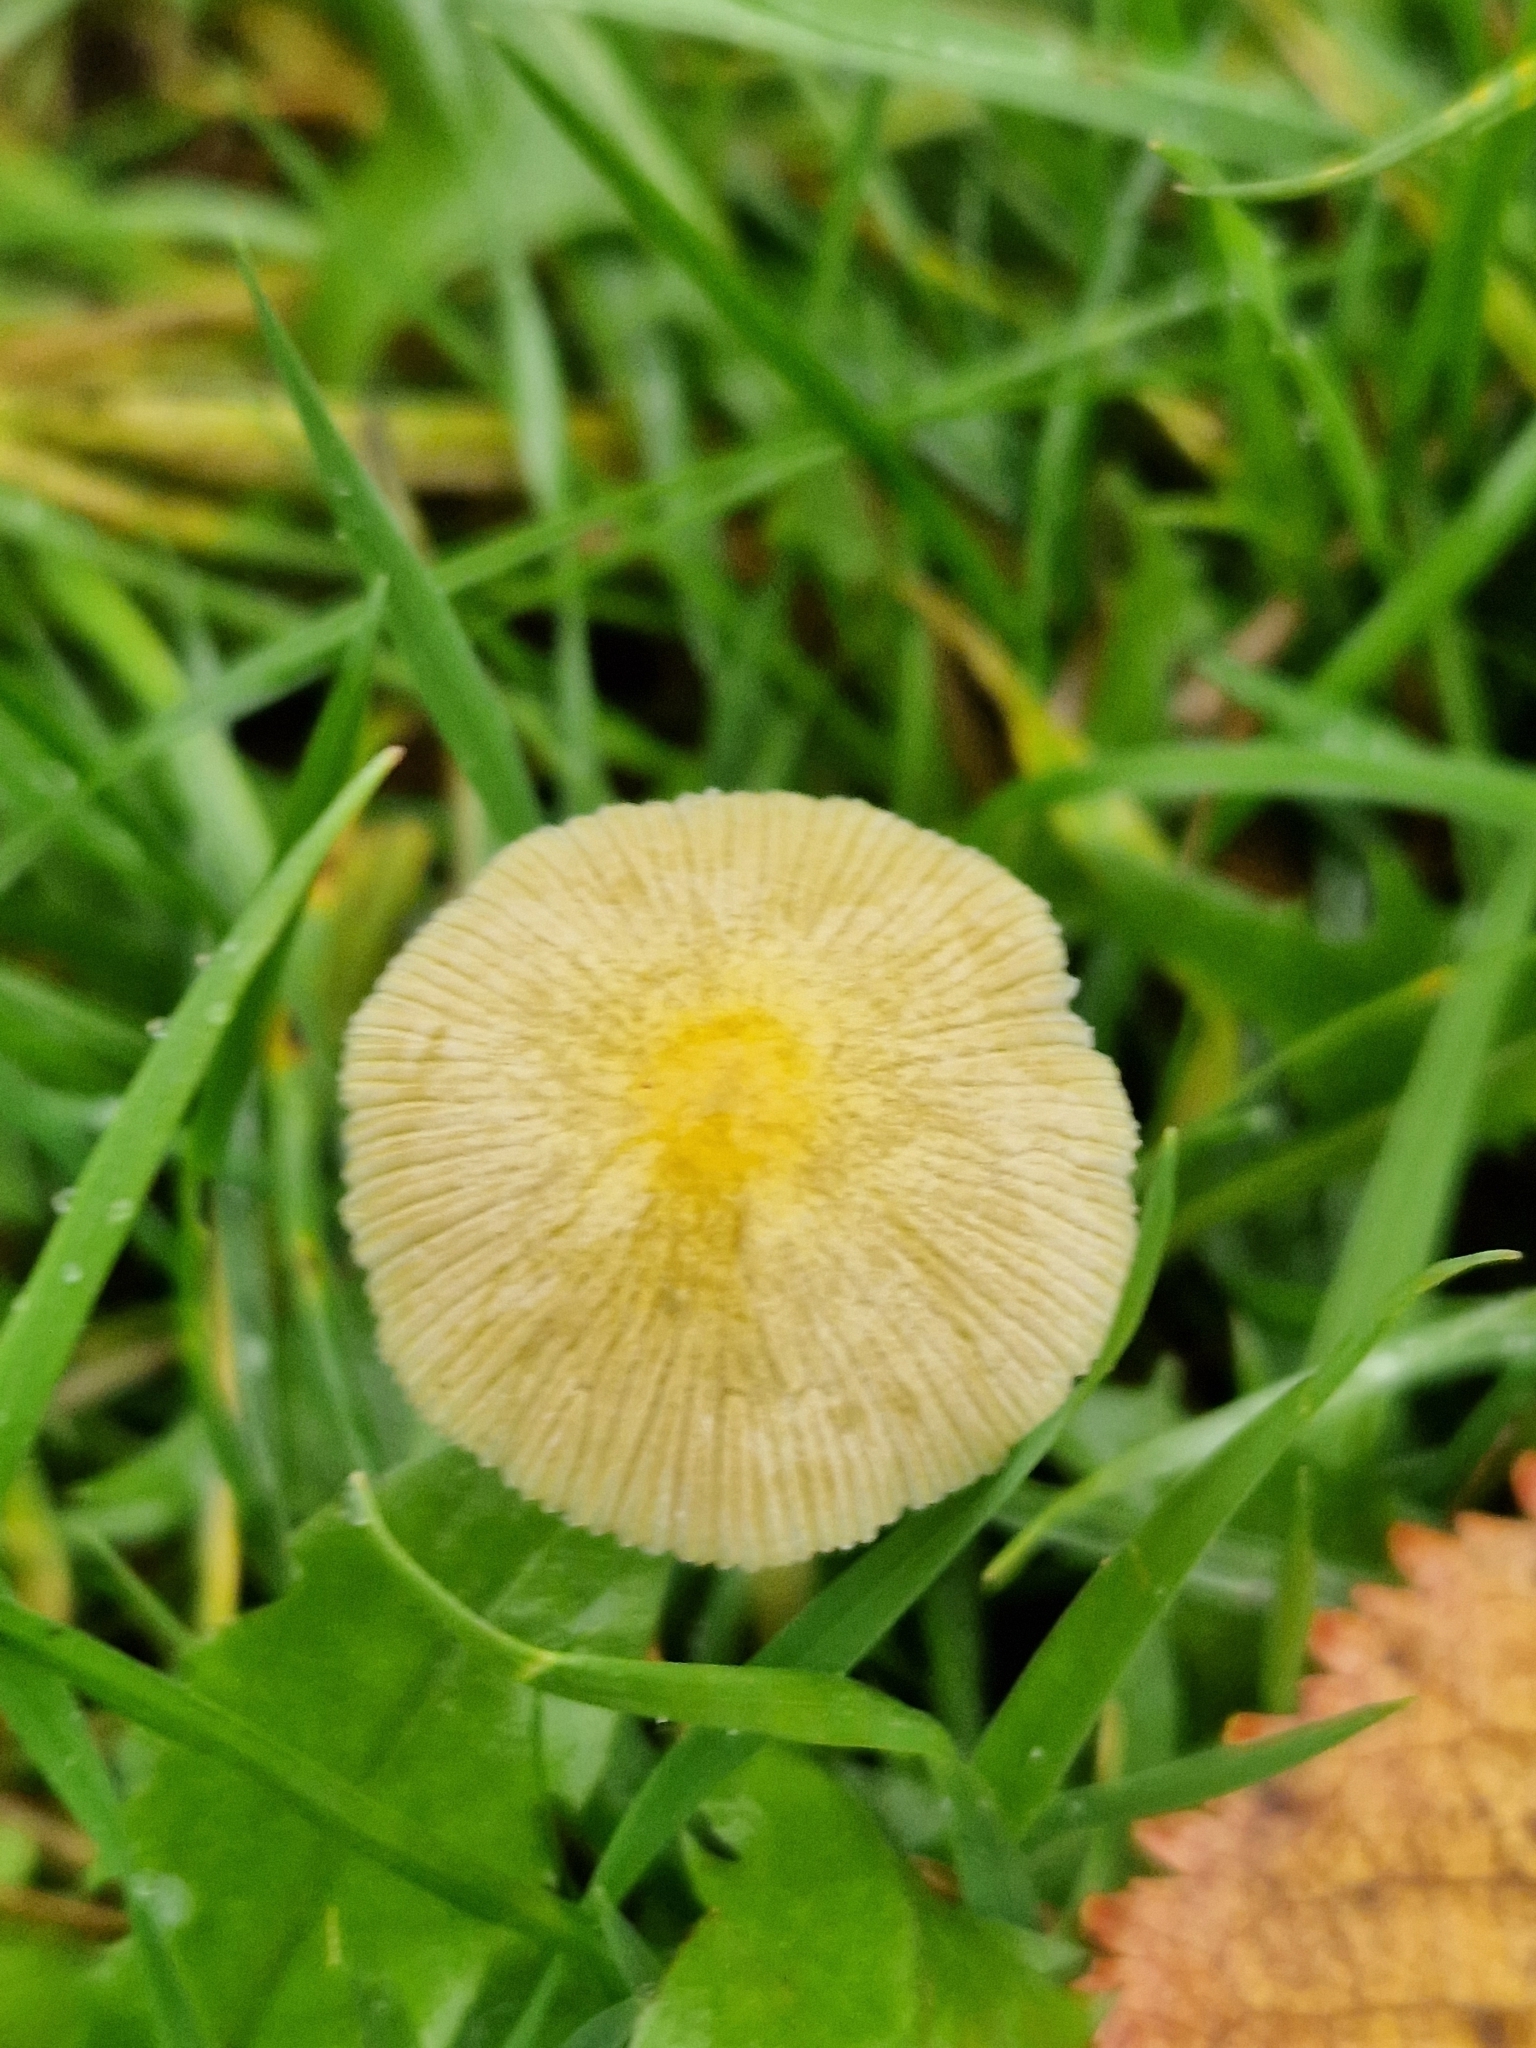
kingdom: Fungi
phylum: Basidiomycota
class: Agaricomycetes
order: Agaricales
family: Bolbitiaceae
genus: Bolbitius
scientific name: Bolbitius titubans
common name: Yellow fieldcap
